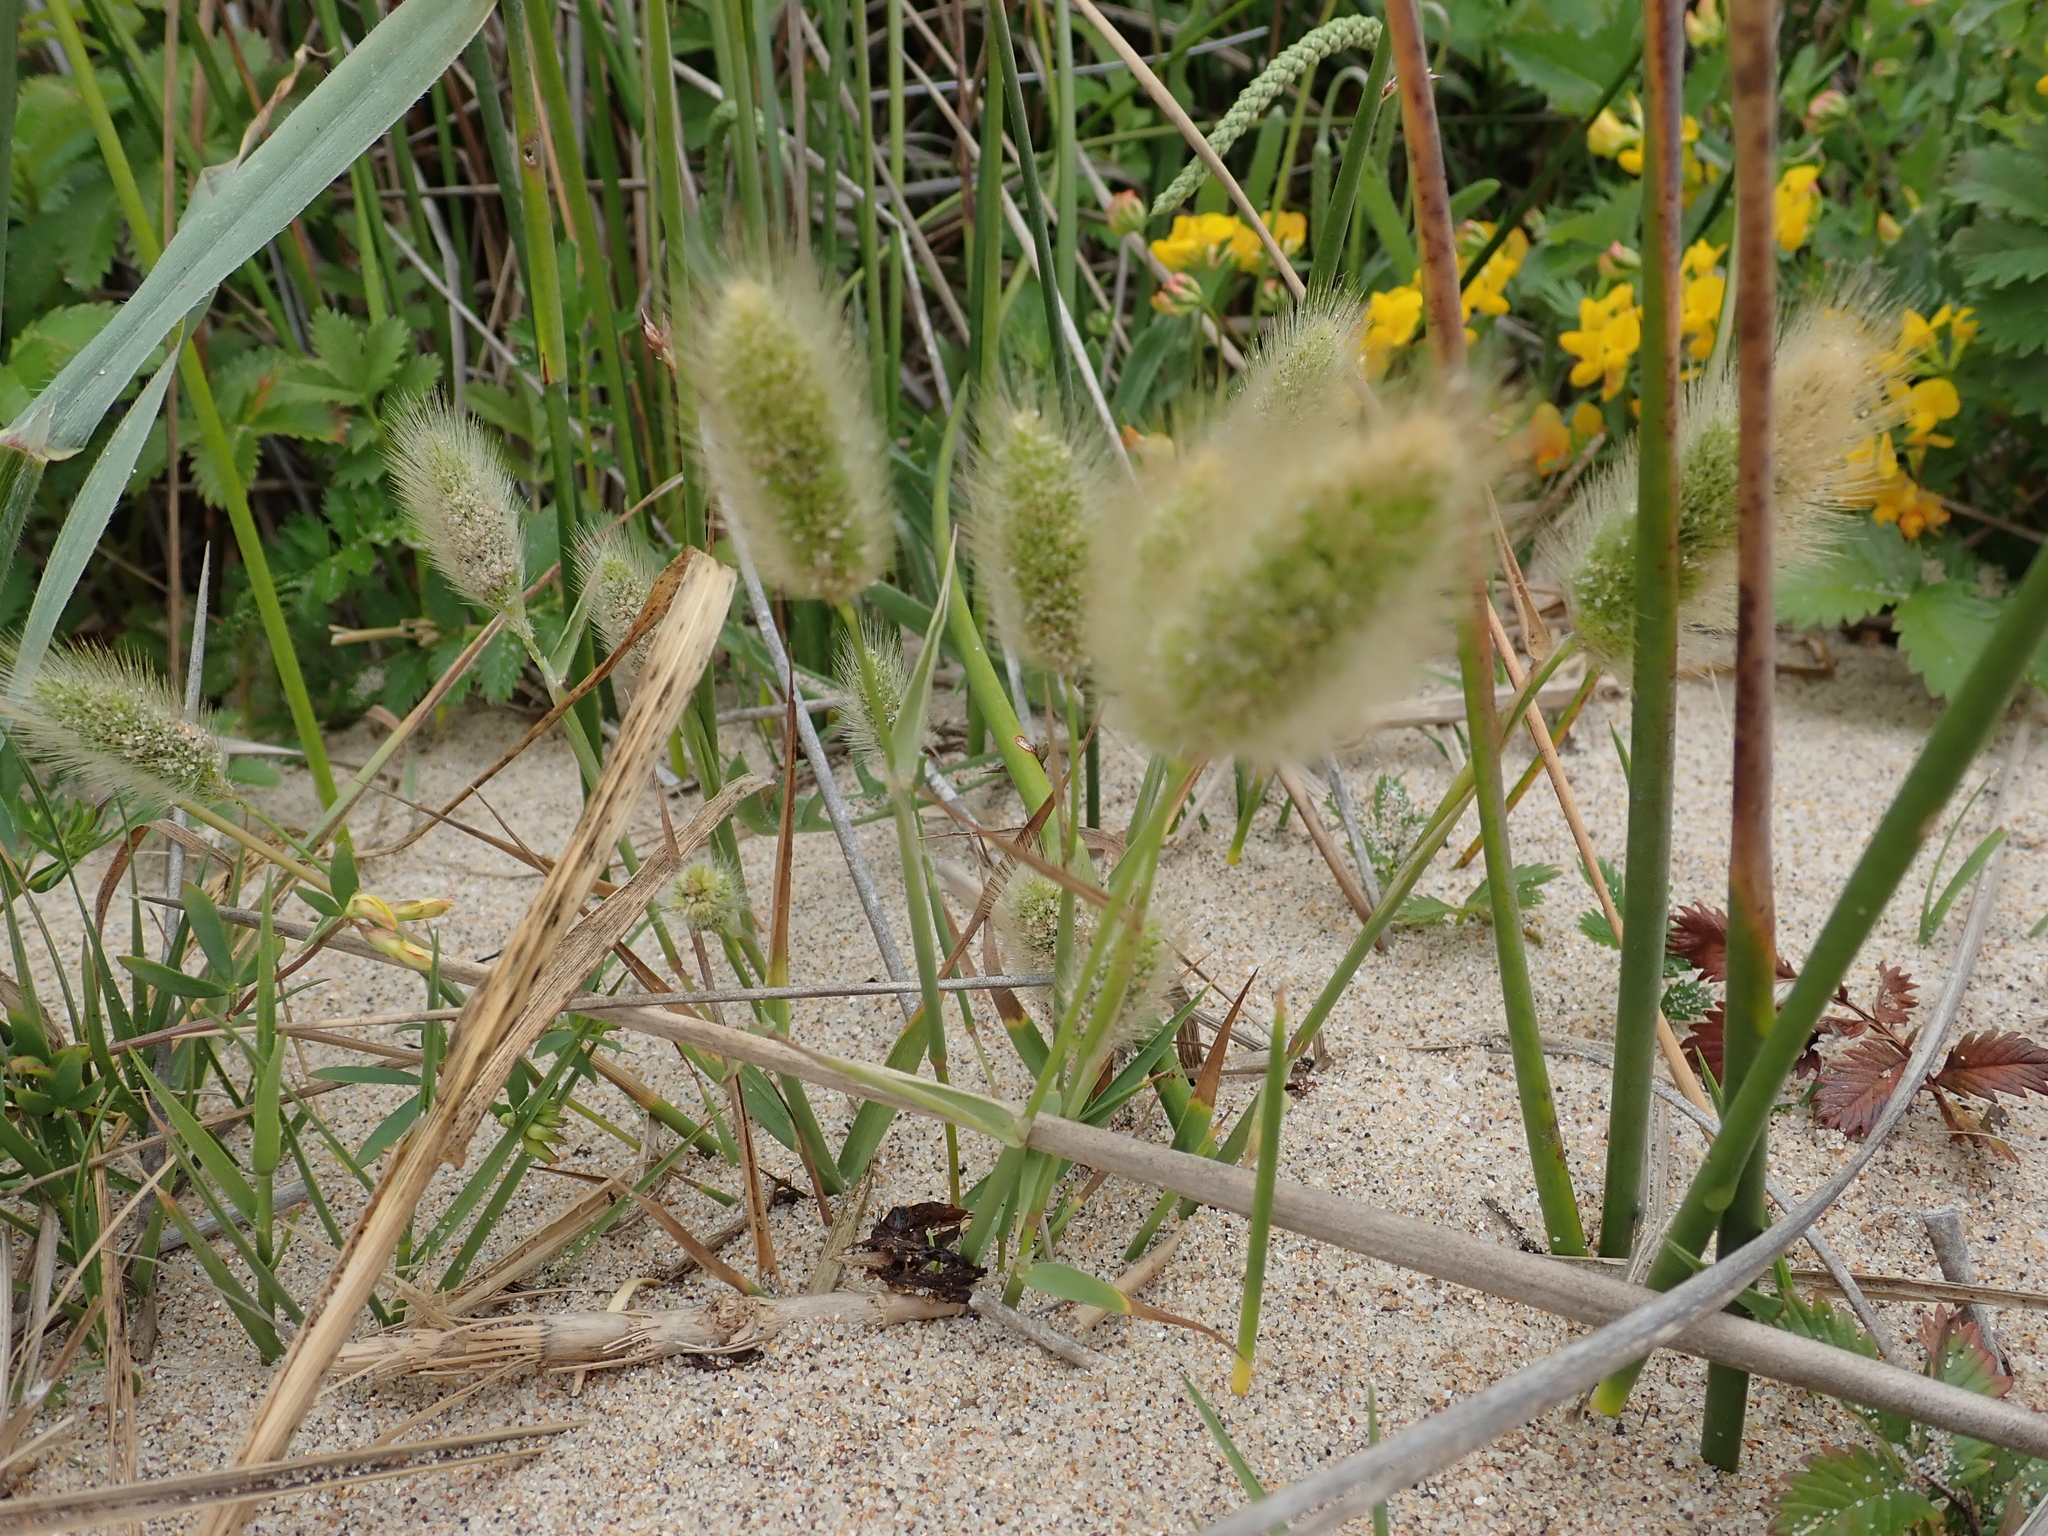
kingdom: Plantae
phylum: Tracheophyta
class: Liliopsida
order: Poales
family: Poaceae
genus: Polypogon
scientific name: Polypogon monspeliensis
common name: Annual rabbitsfoot grass
